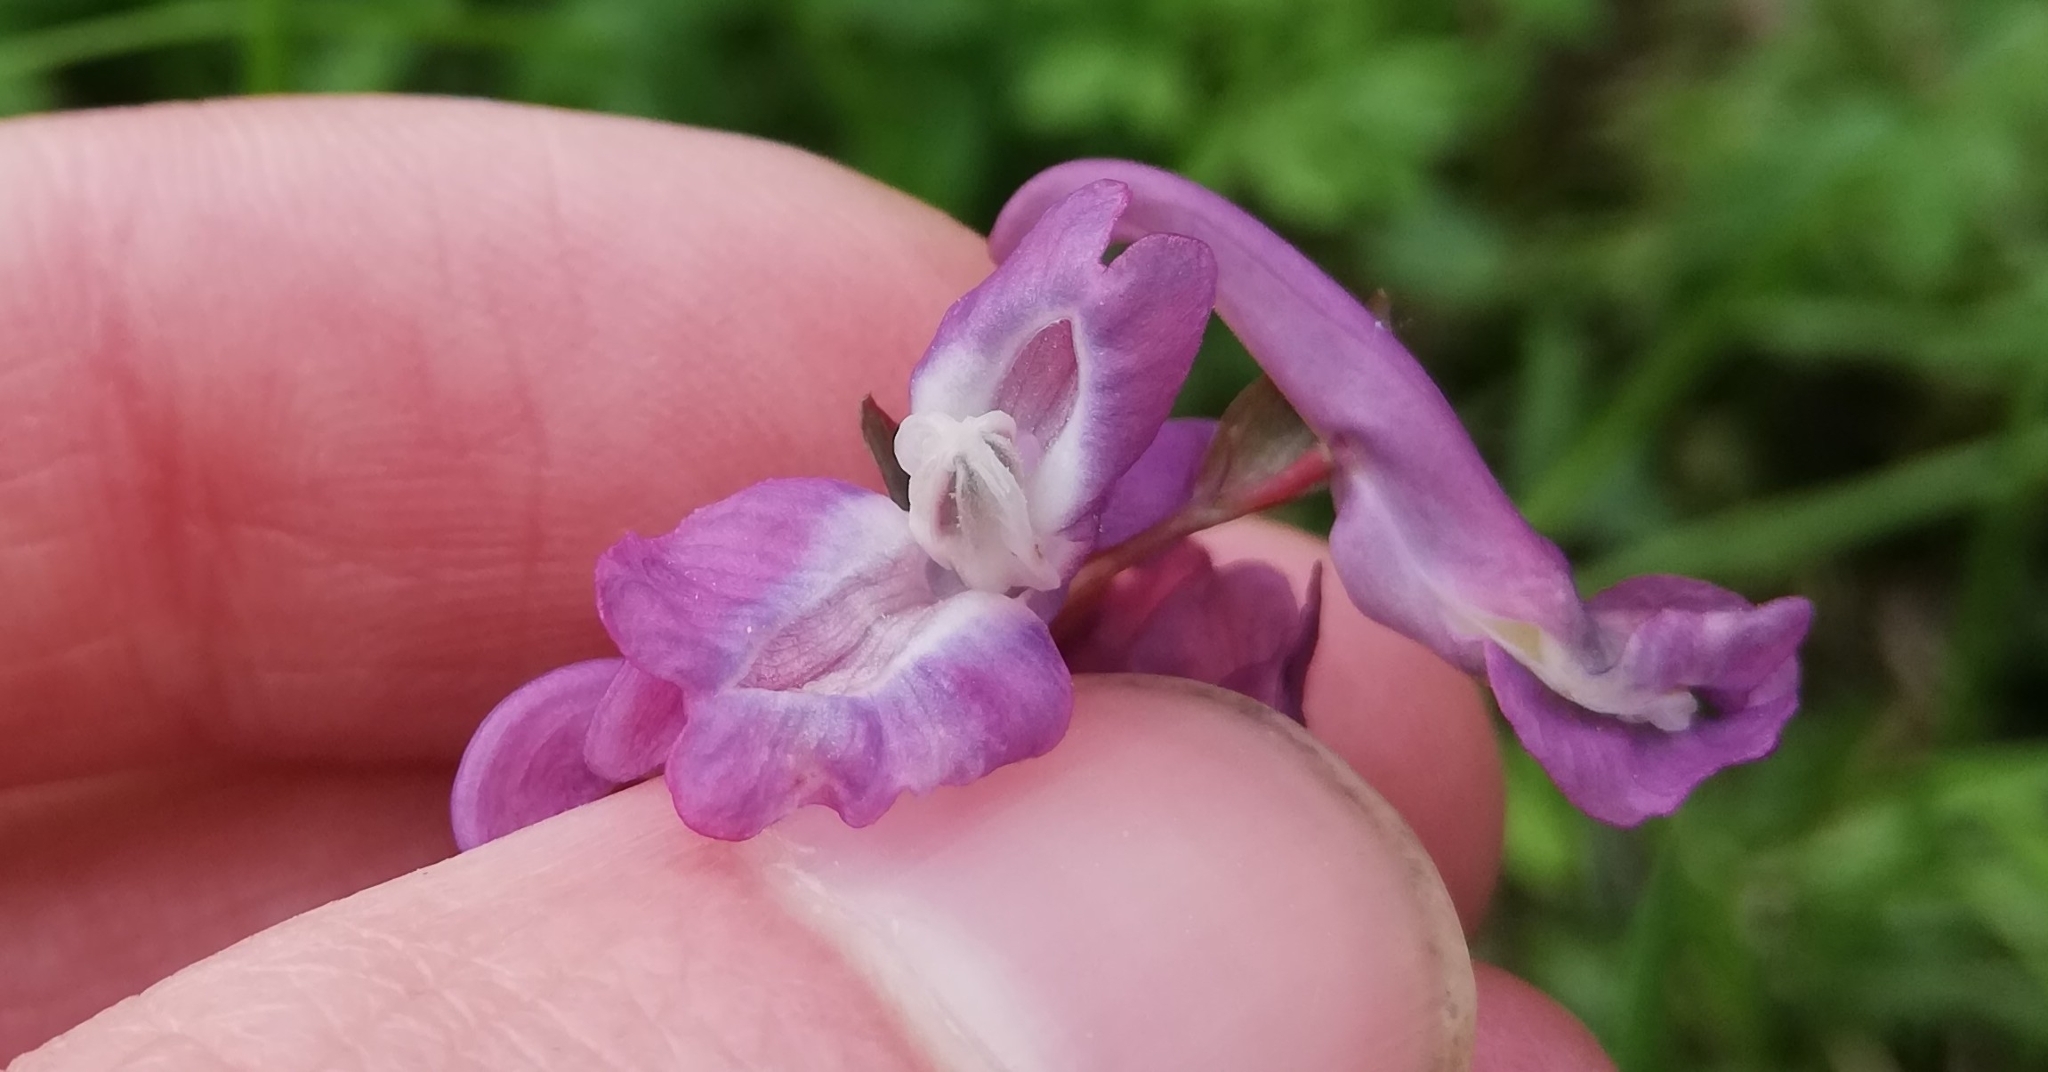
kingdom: Plantae
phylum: Tracheophyta
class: Magnoliopsida
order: Ranunculales
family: Papaveraceae
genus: Corydalis
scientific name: Corydalis cava
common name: Hollowroot
